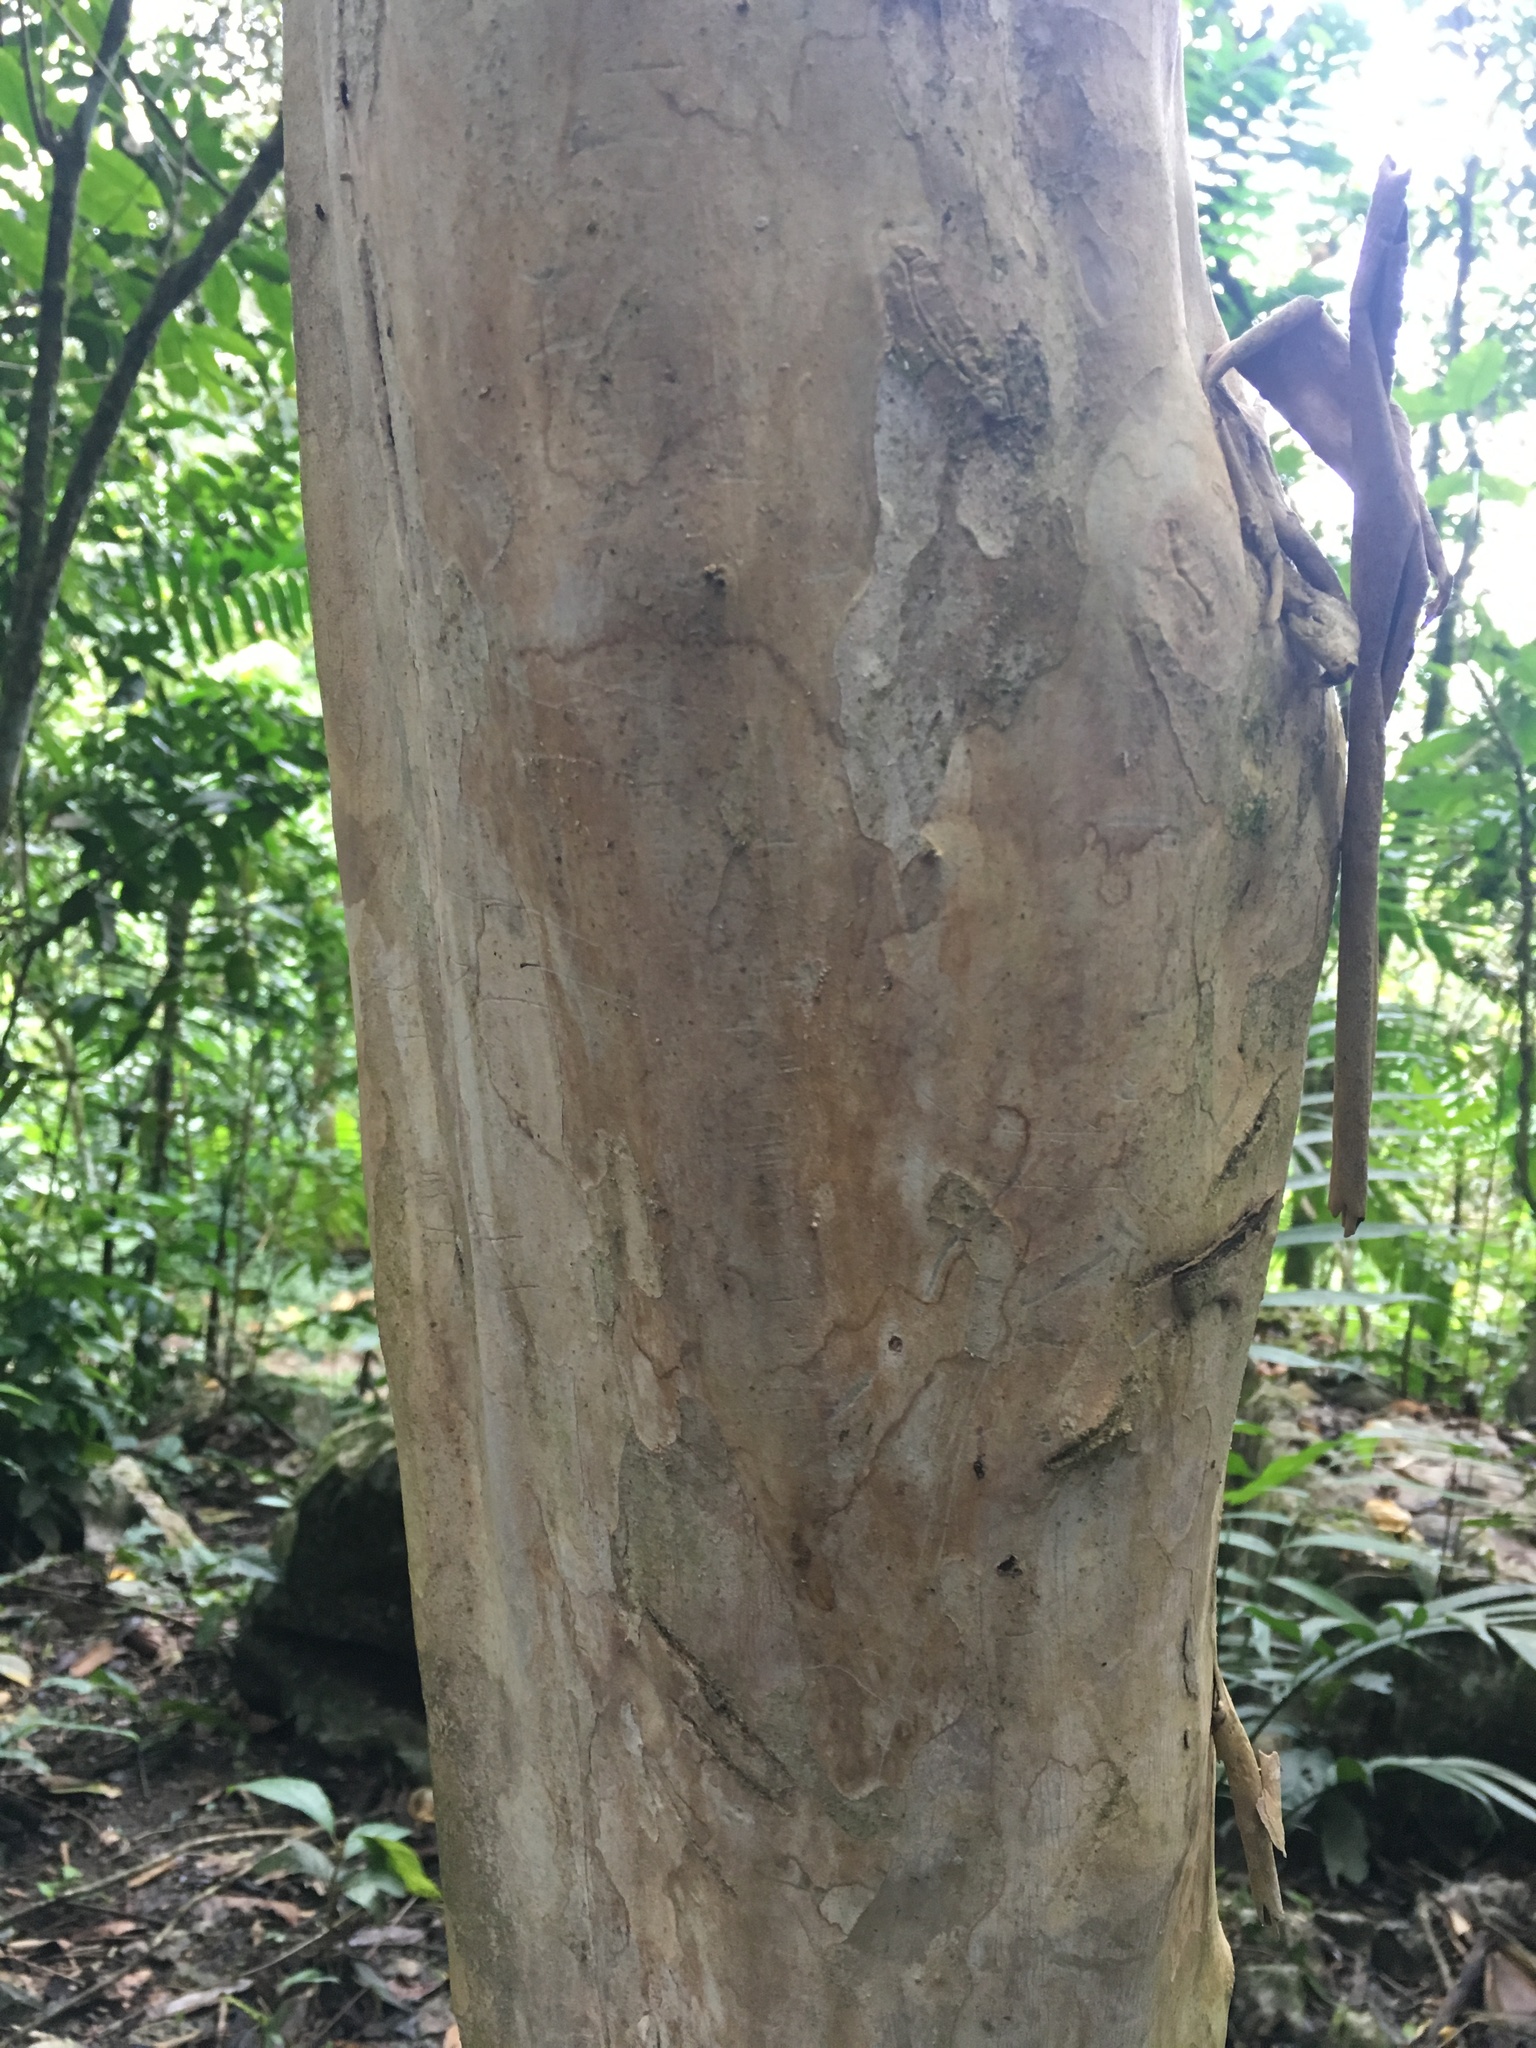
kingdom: Plantae
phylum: Tracheophyta
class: Magnoliopsida
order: Myrtales
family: Myrtaceae
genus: Pimenta
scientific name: Pimenta dioica
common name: Allspice
